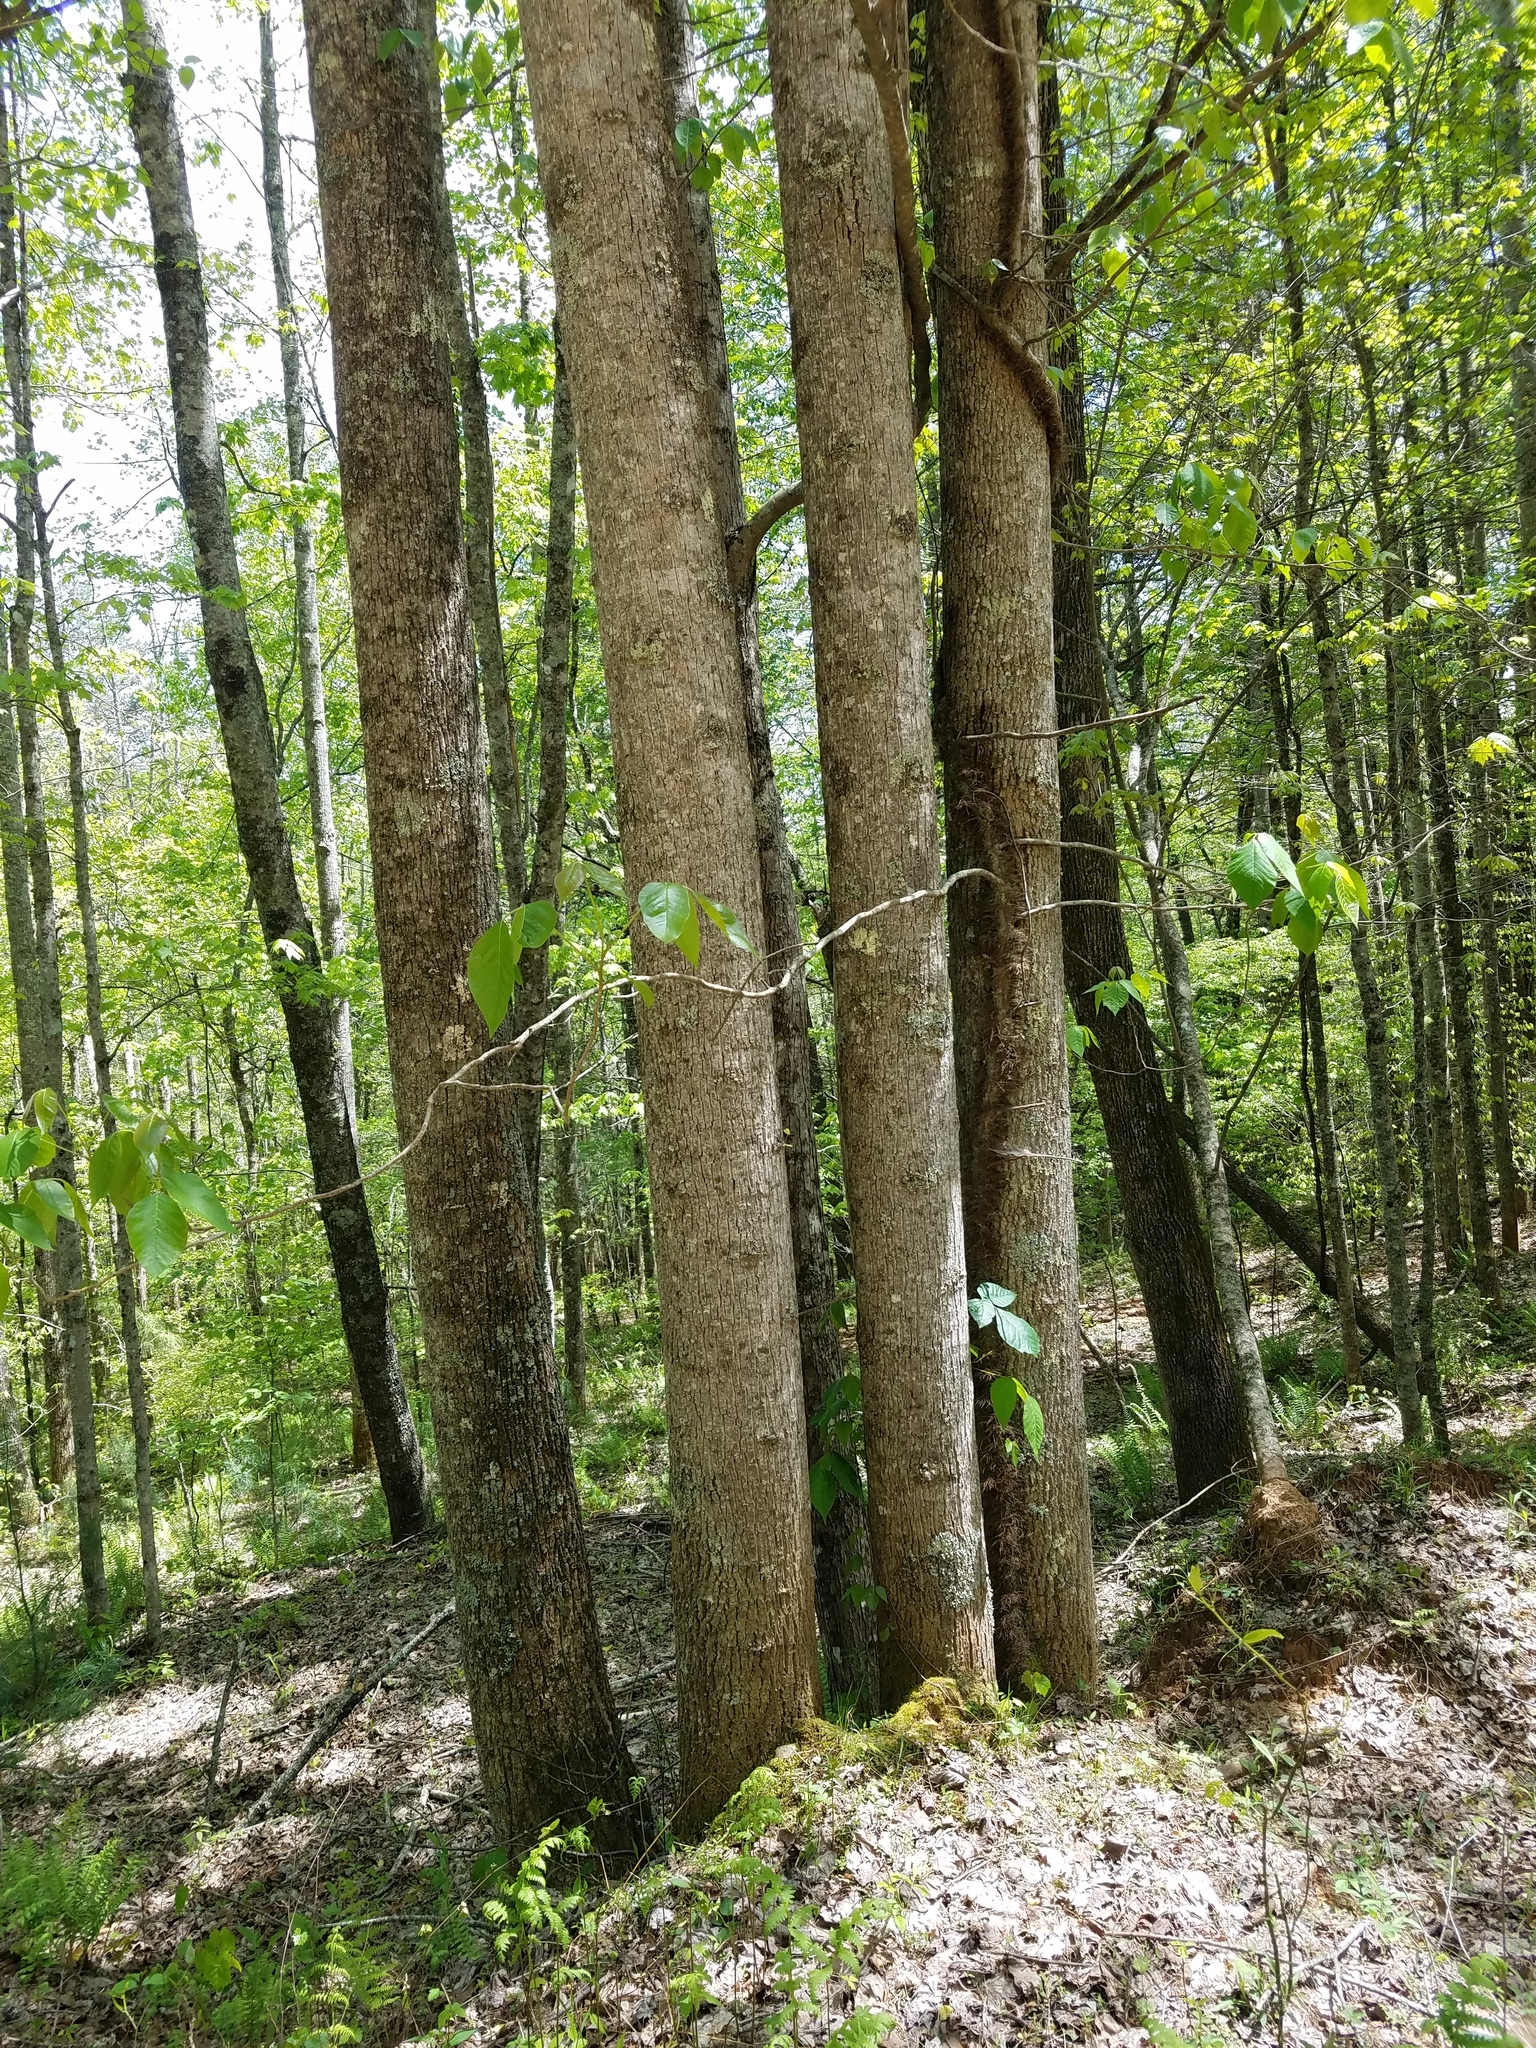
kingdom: Plantae
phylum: Tracheophyta
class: Magnoliopsida
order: Sapindales
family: Anacardiaceae
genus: Toxicodendron
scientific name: Toxicodendron radicans
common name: Poison ivy
